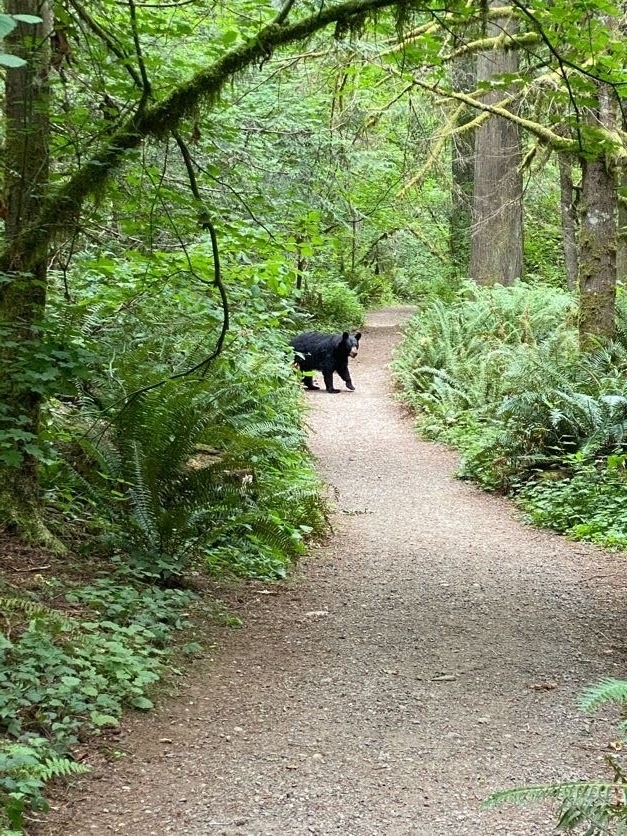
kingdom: Animalia
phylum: Chordata
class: Mammalia
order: Carnivora
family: Ursidae
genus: Ursus
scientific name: Ursus americanus
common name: American black bear
